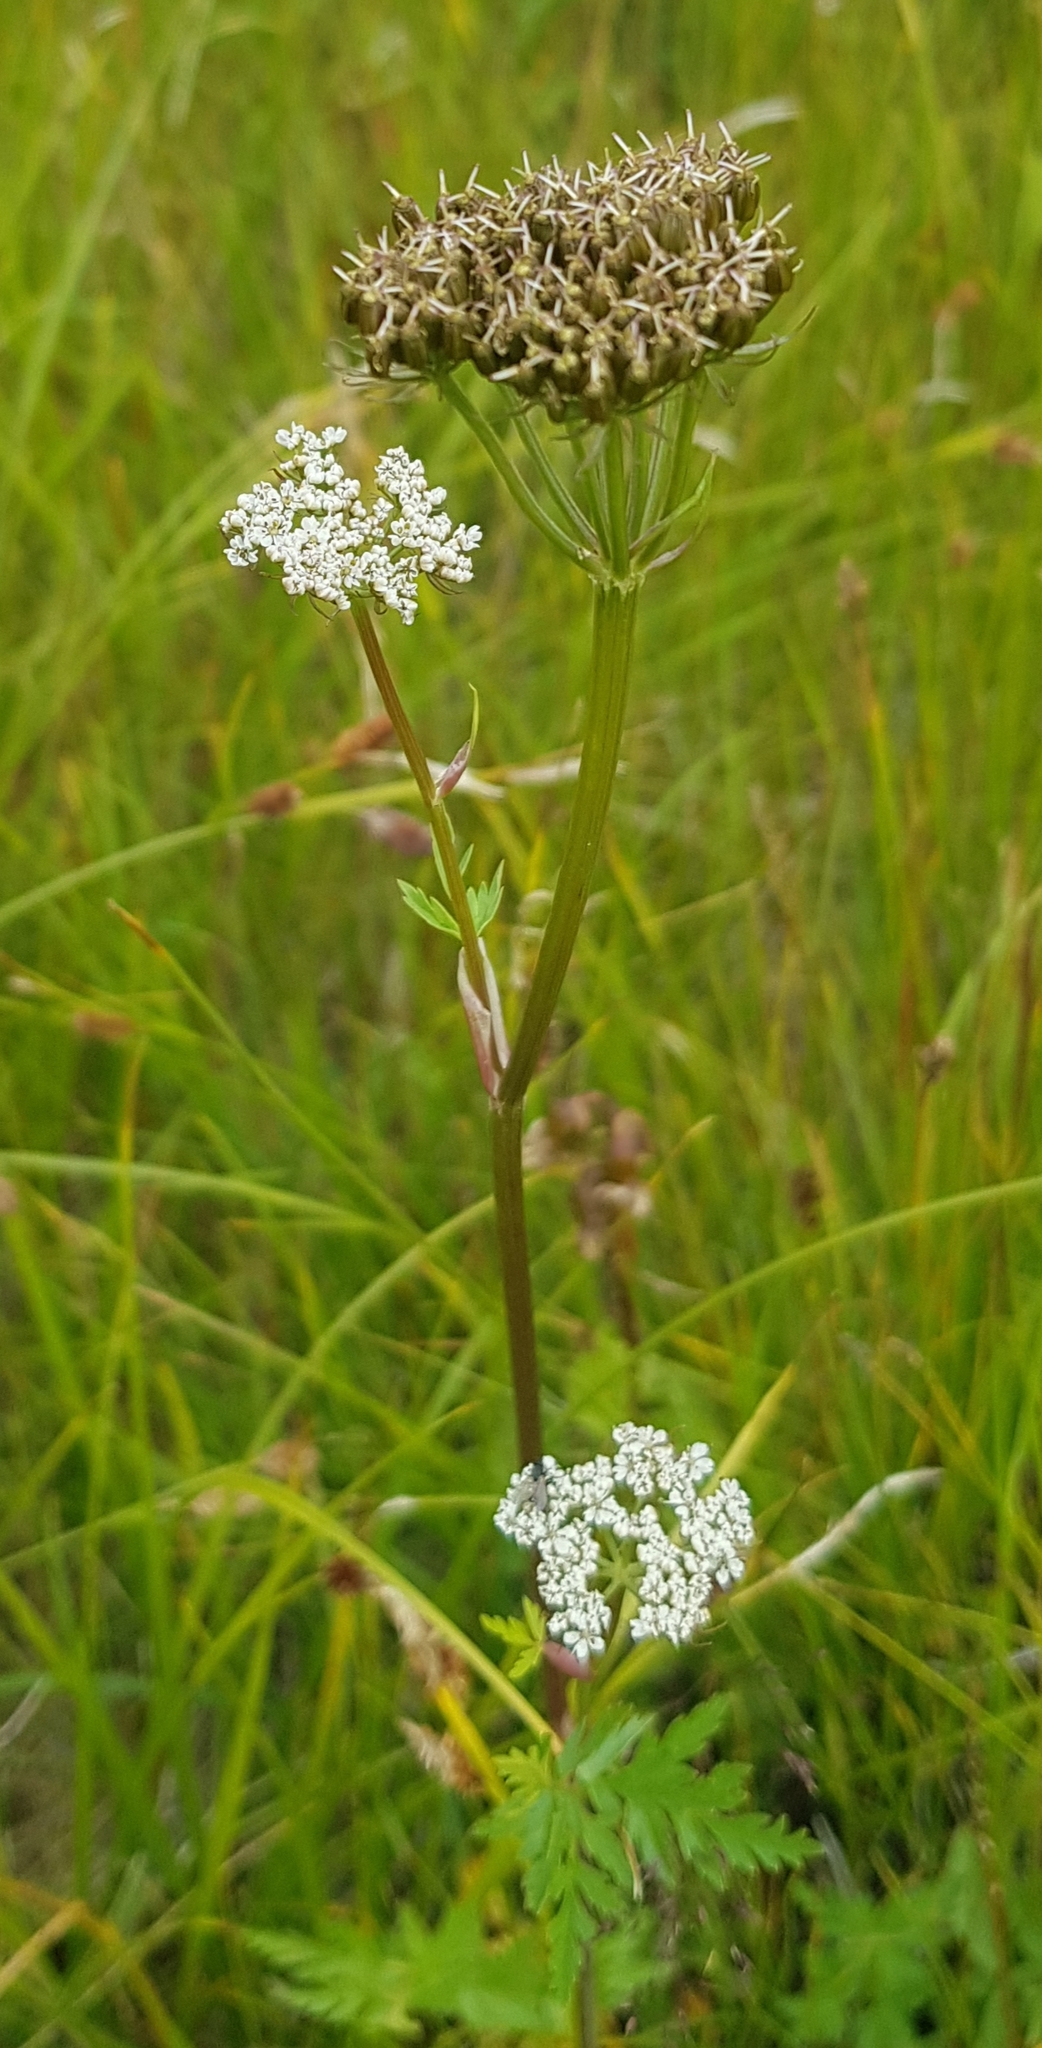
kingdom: Plantae
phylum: Tracheophyta
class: Magnoliopsida
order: Apiales
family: Apiaceae
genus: Conioselinum
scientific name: Conioselinum tataricum
